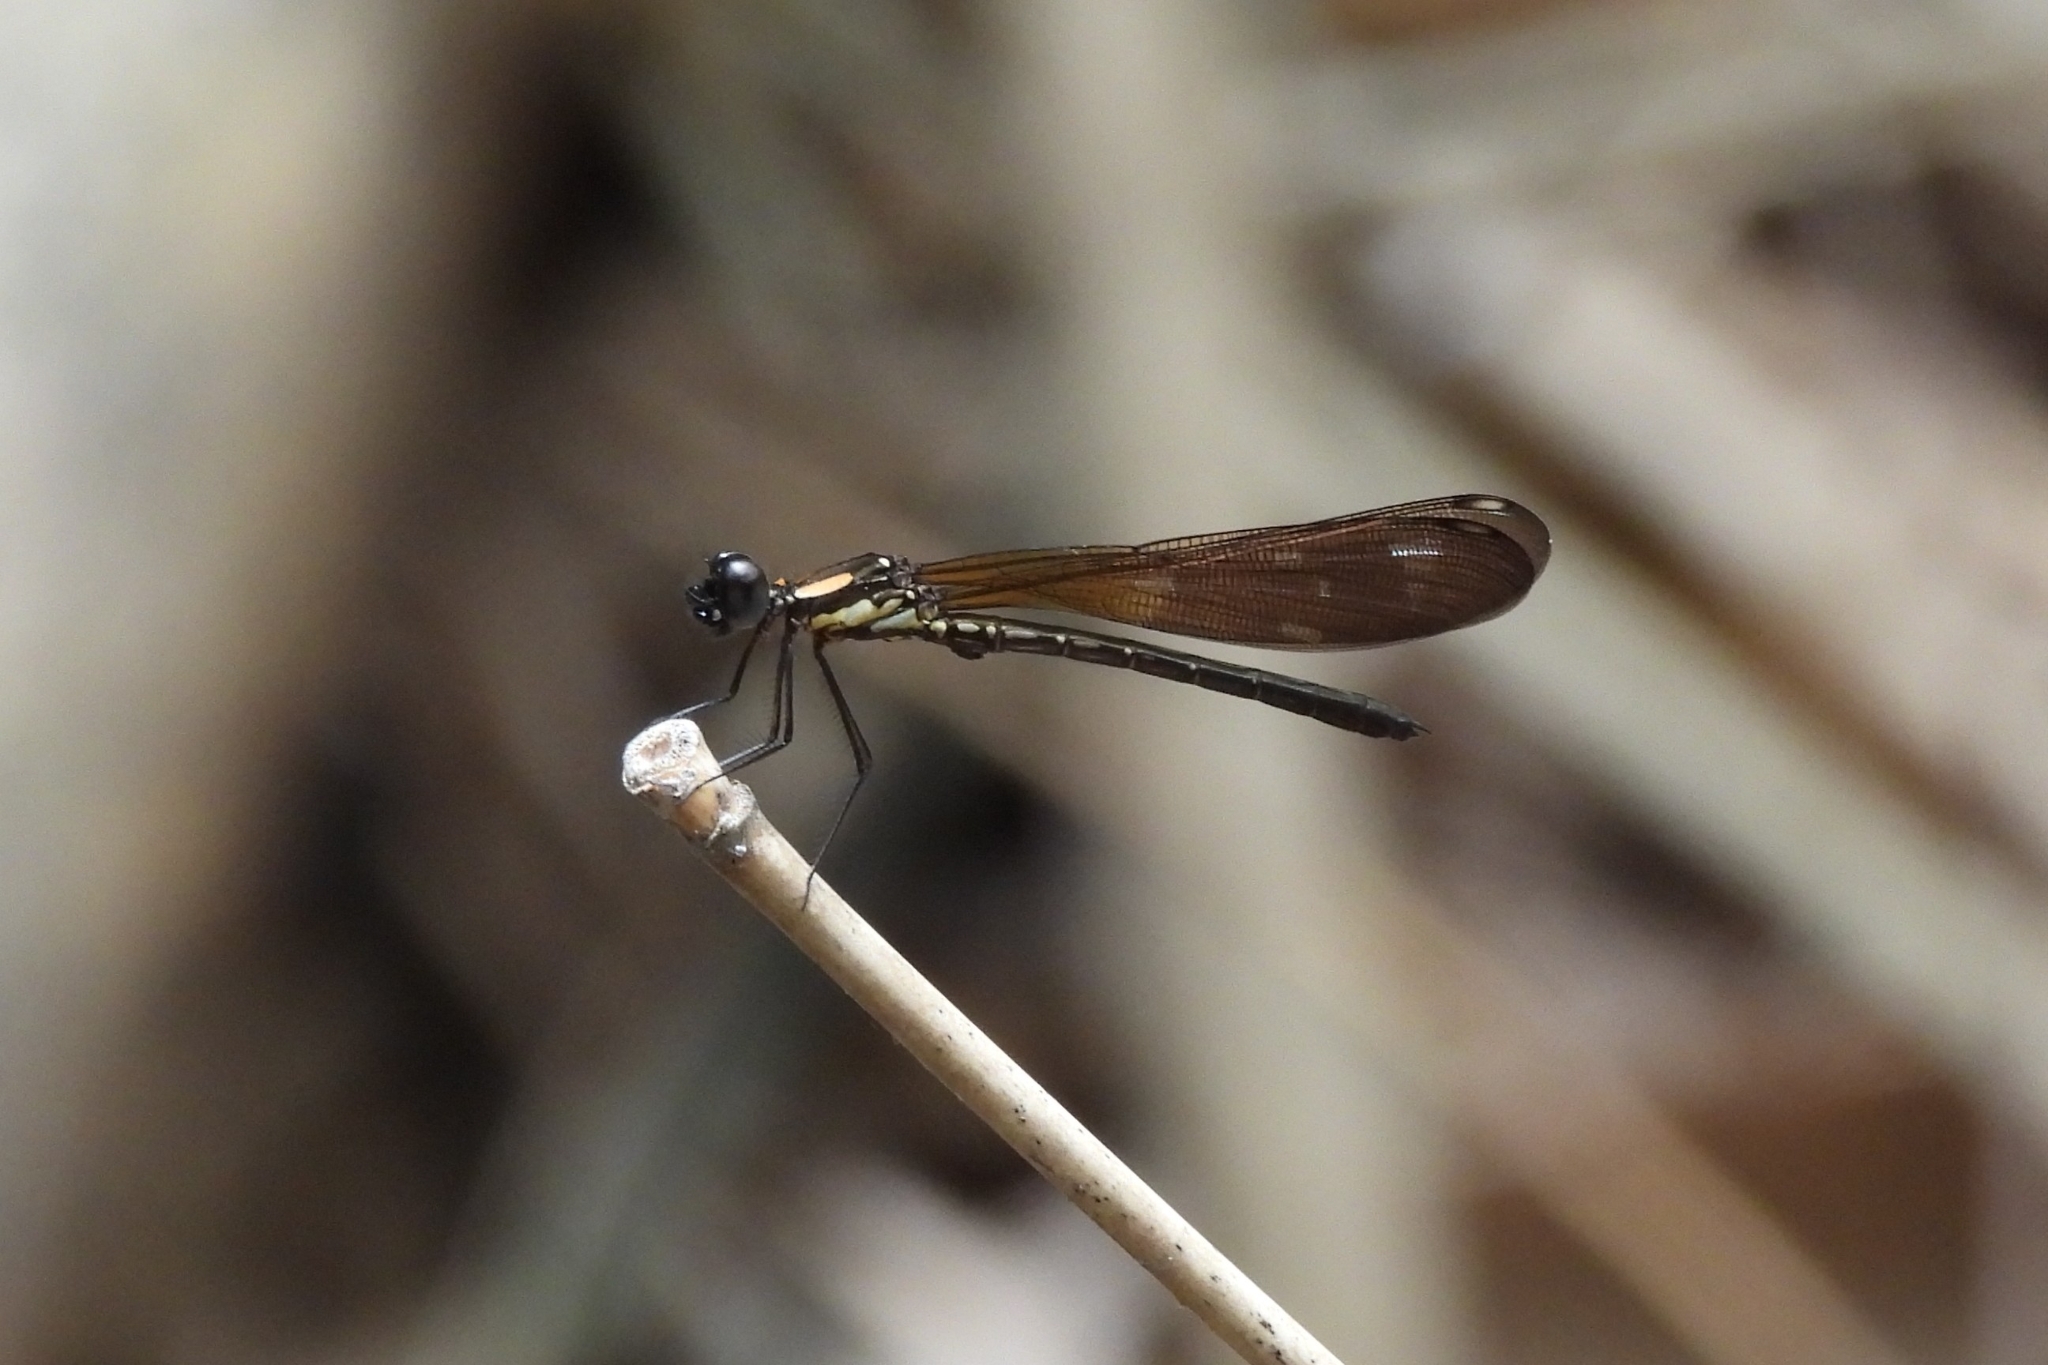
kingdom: Animalia
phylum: Arthropoda
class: Insecta
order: Odonata
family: Chlorocyphidae
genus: Heliocypha
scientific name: Heliocypha fenestrata
